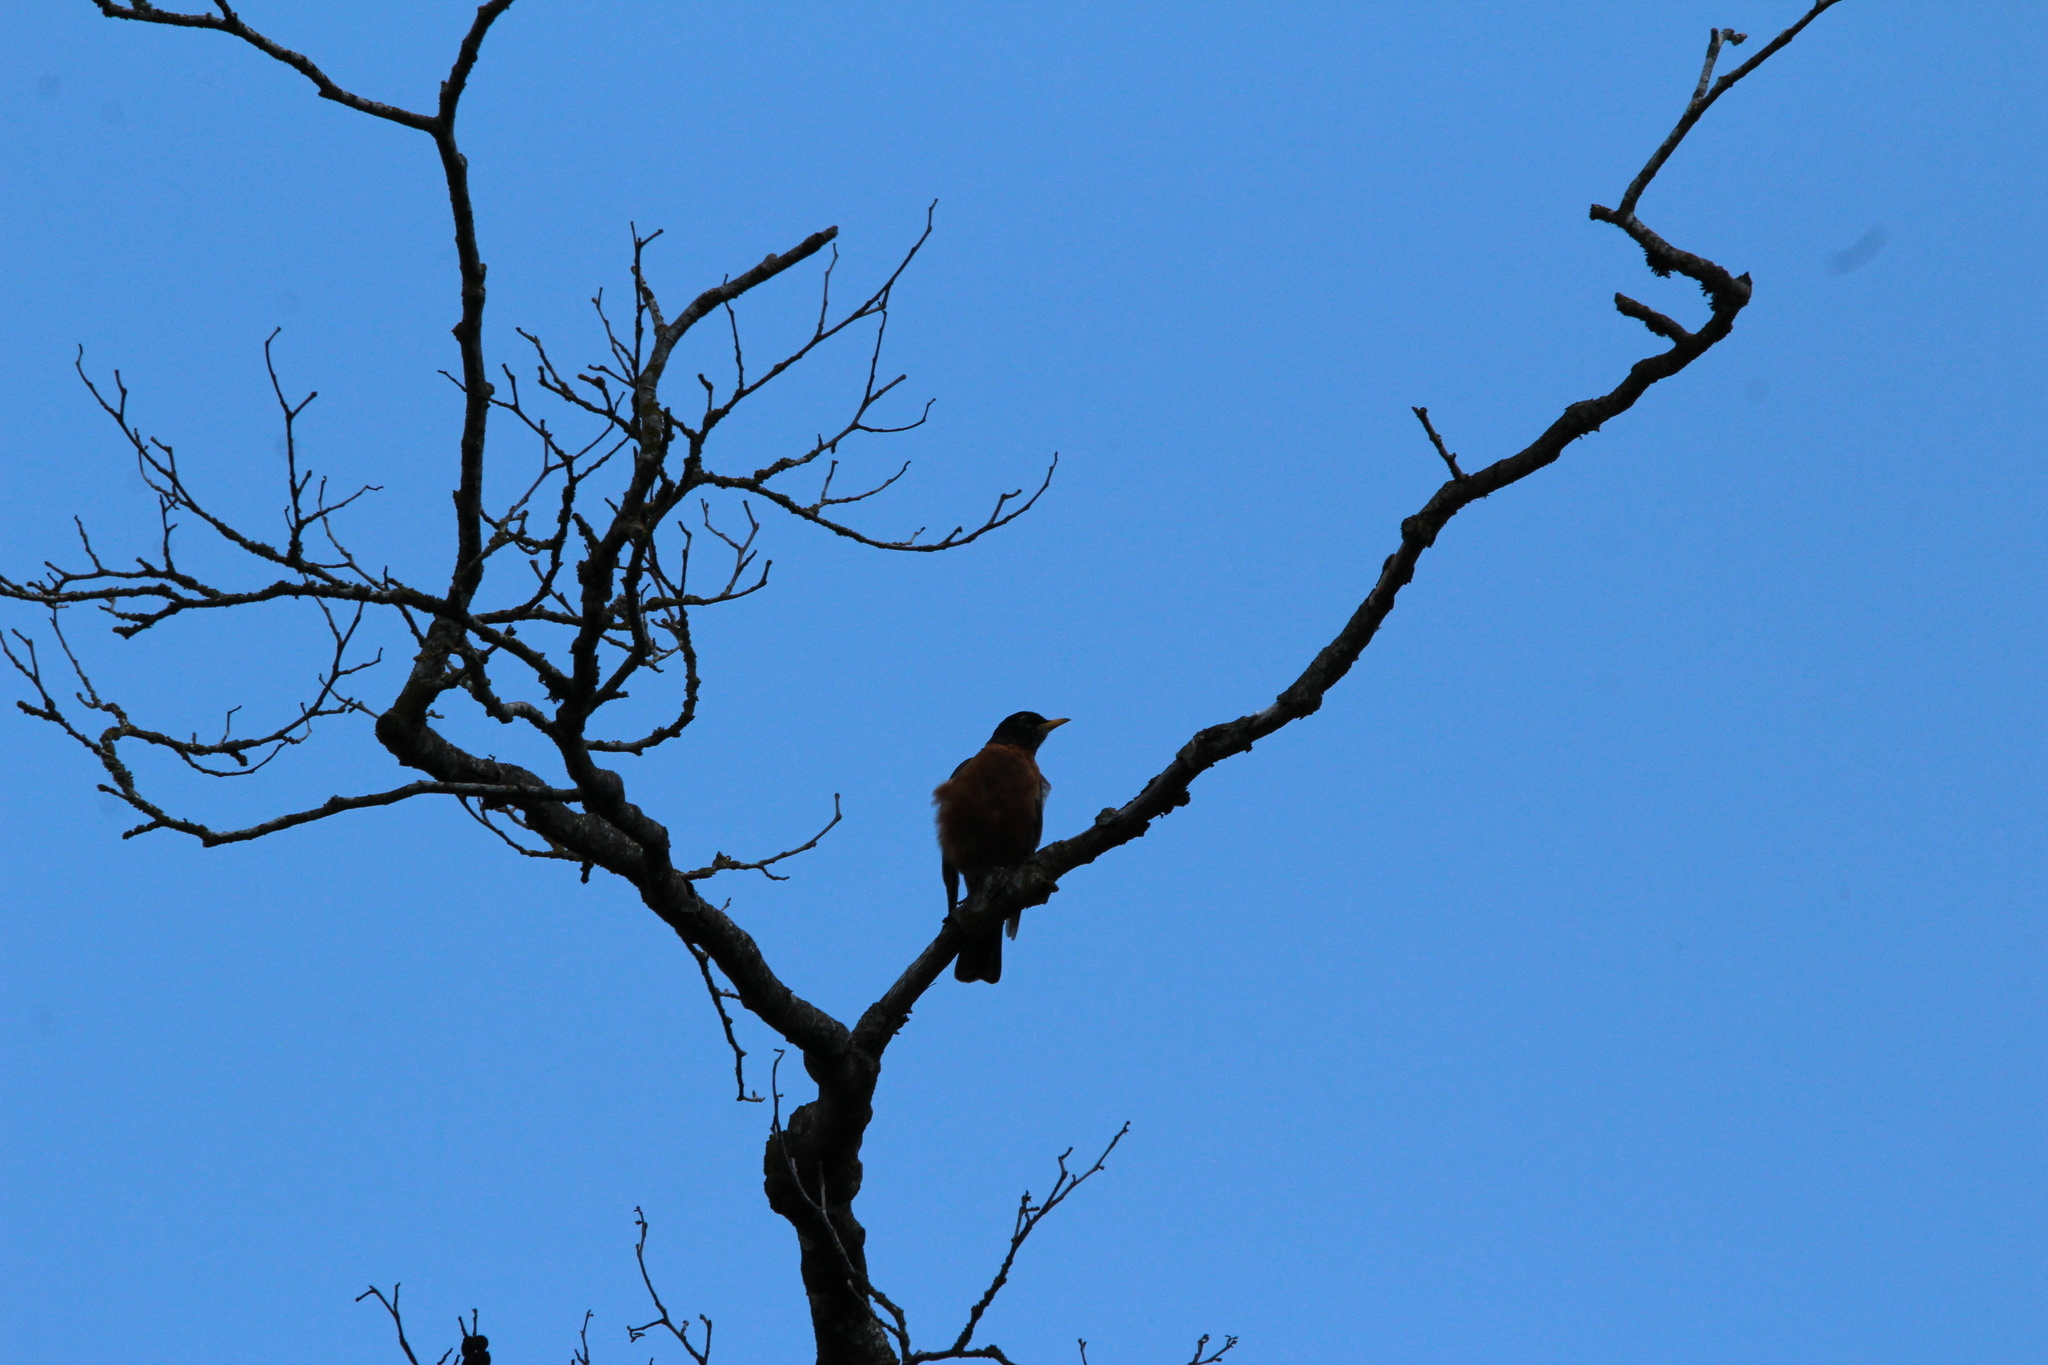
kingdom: Animalia
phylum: Chordata
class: Aves
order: Passeriformes
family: Turdidae
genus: Turdus
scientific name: Turdus migratorius
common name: American robin
